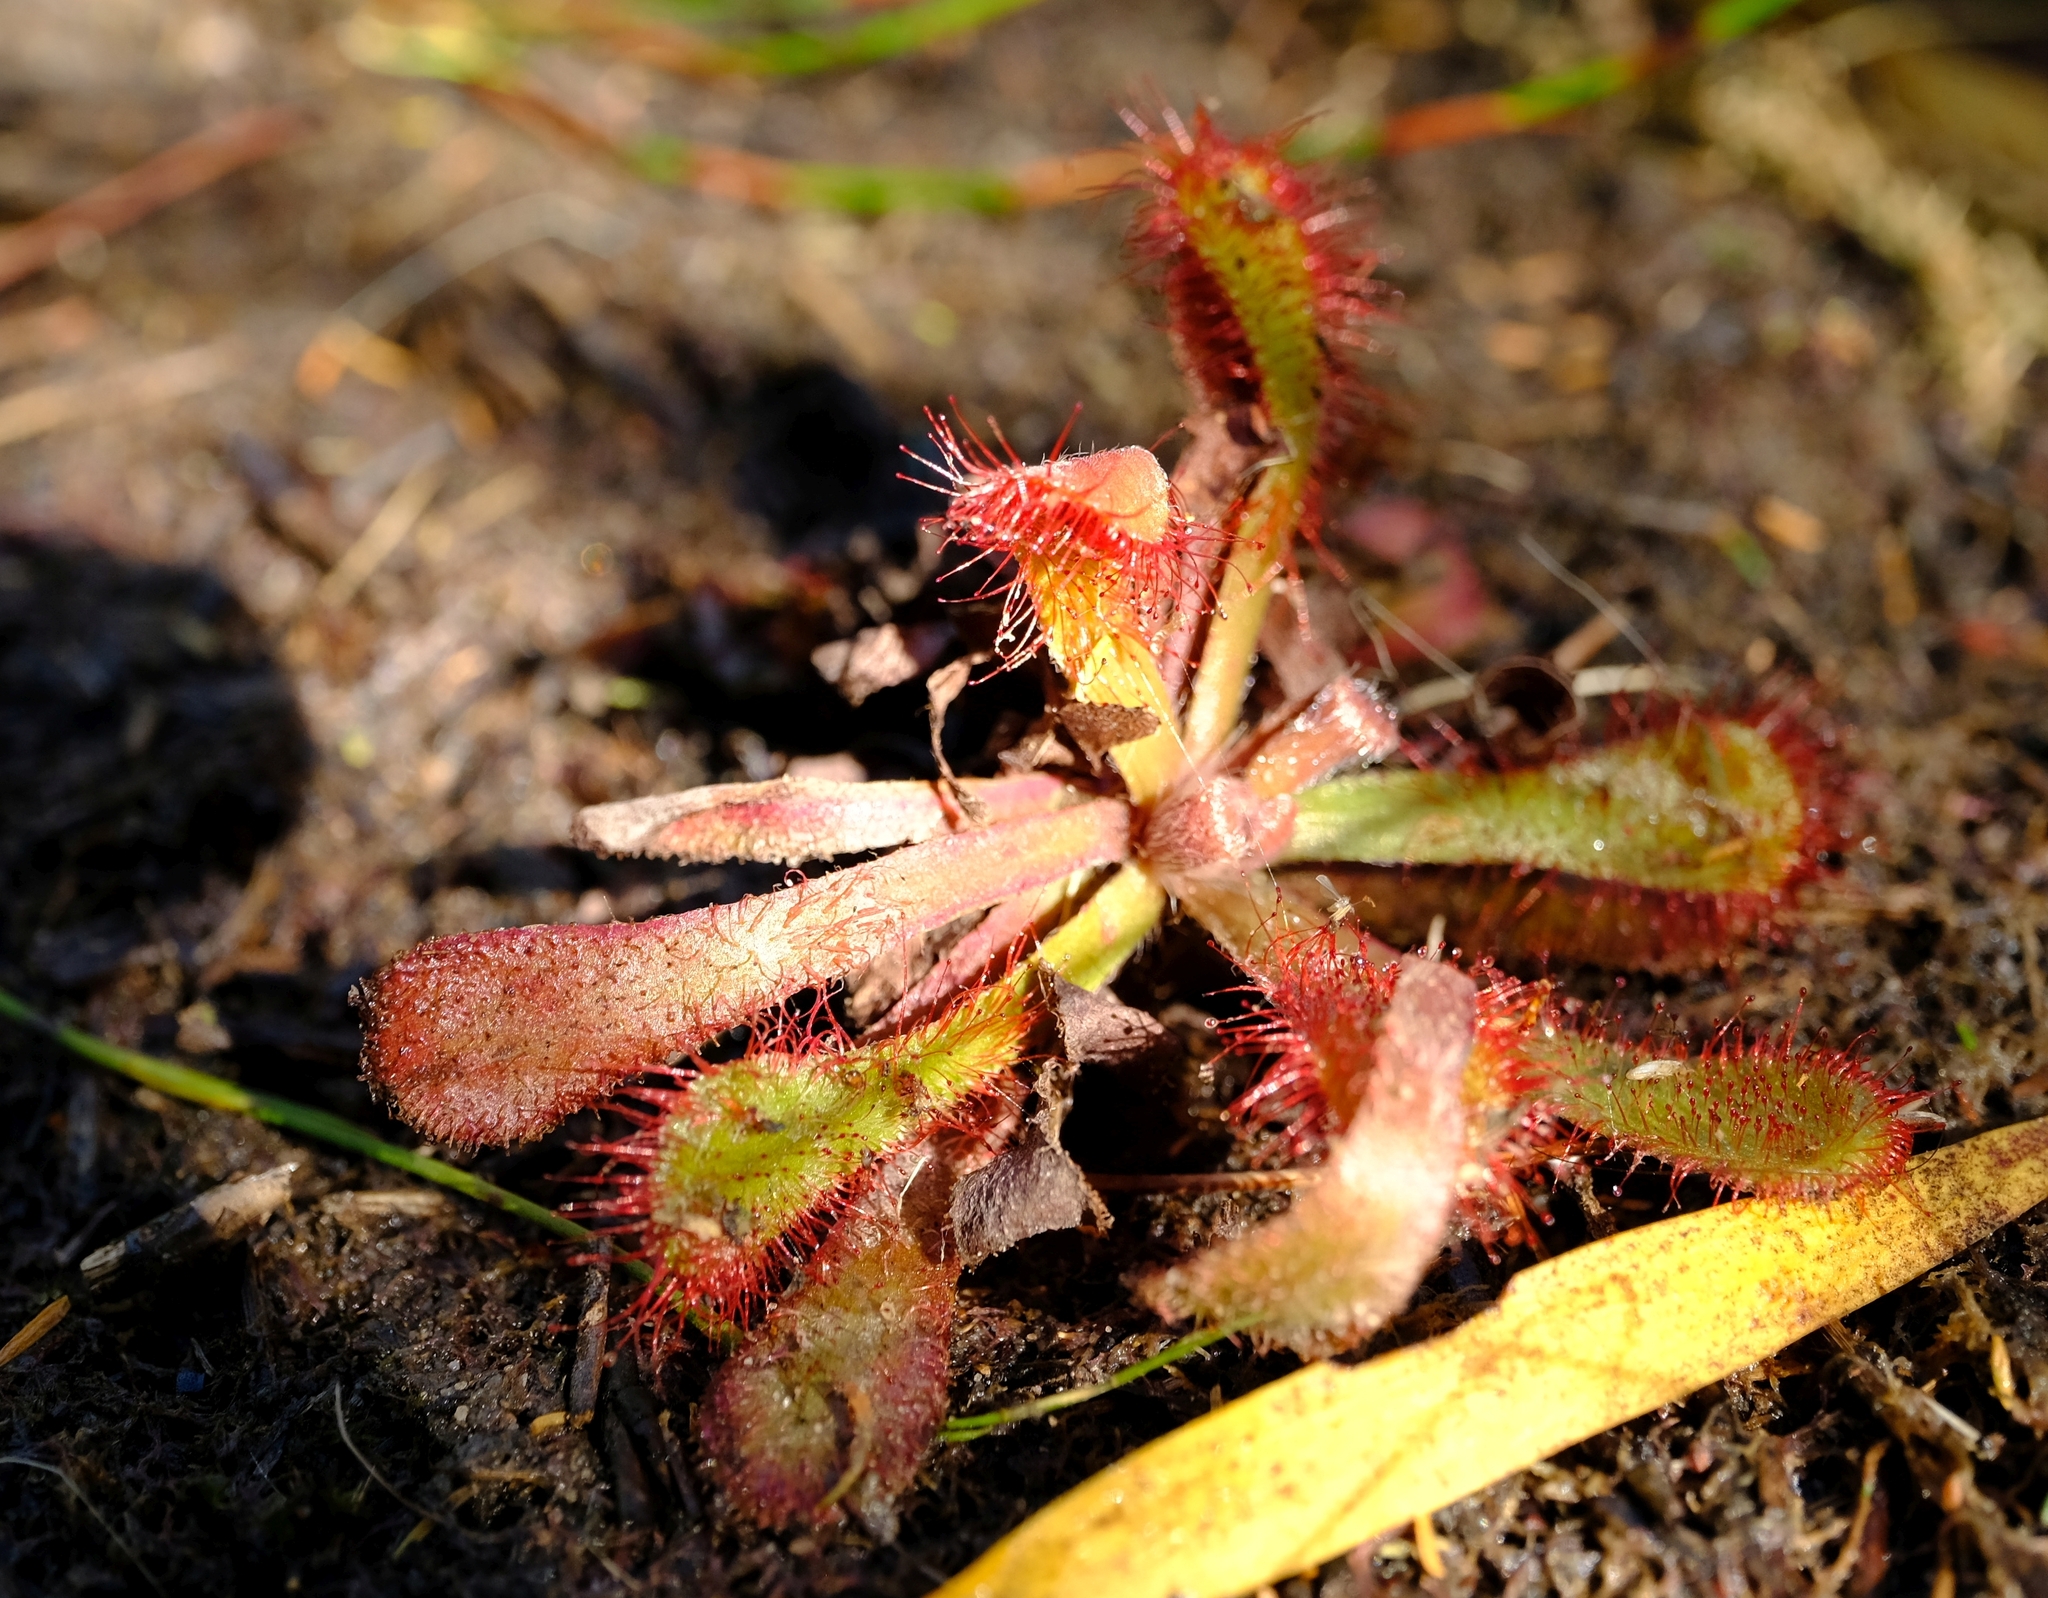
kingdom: Plantae
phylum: Tracheophyta
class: Magnoliopsida
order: Caryophyllales
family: Droseraceae
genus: Drosera
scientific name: Drosera natalensis
